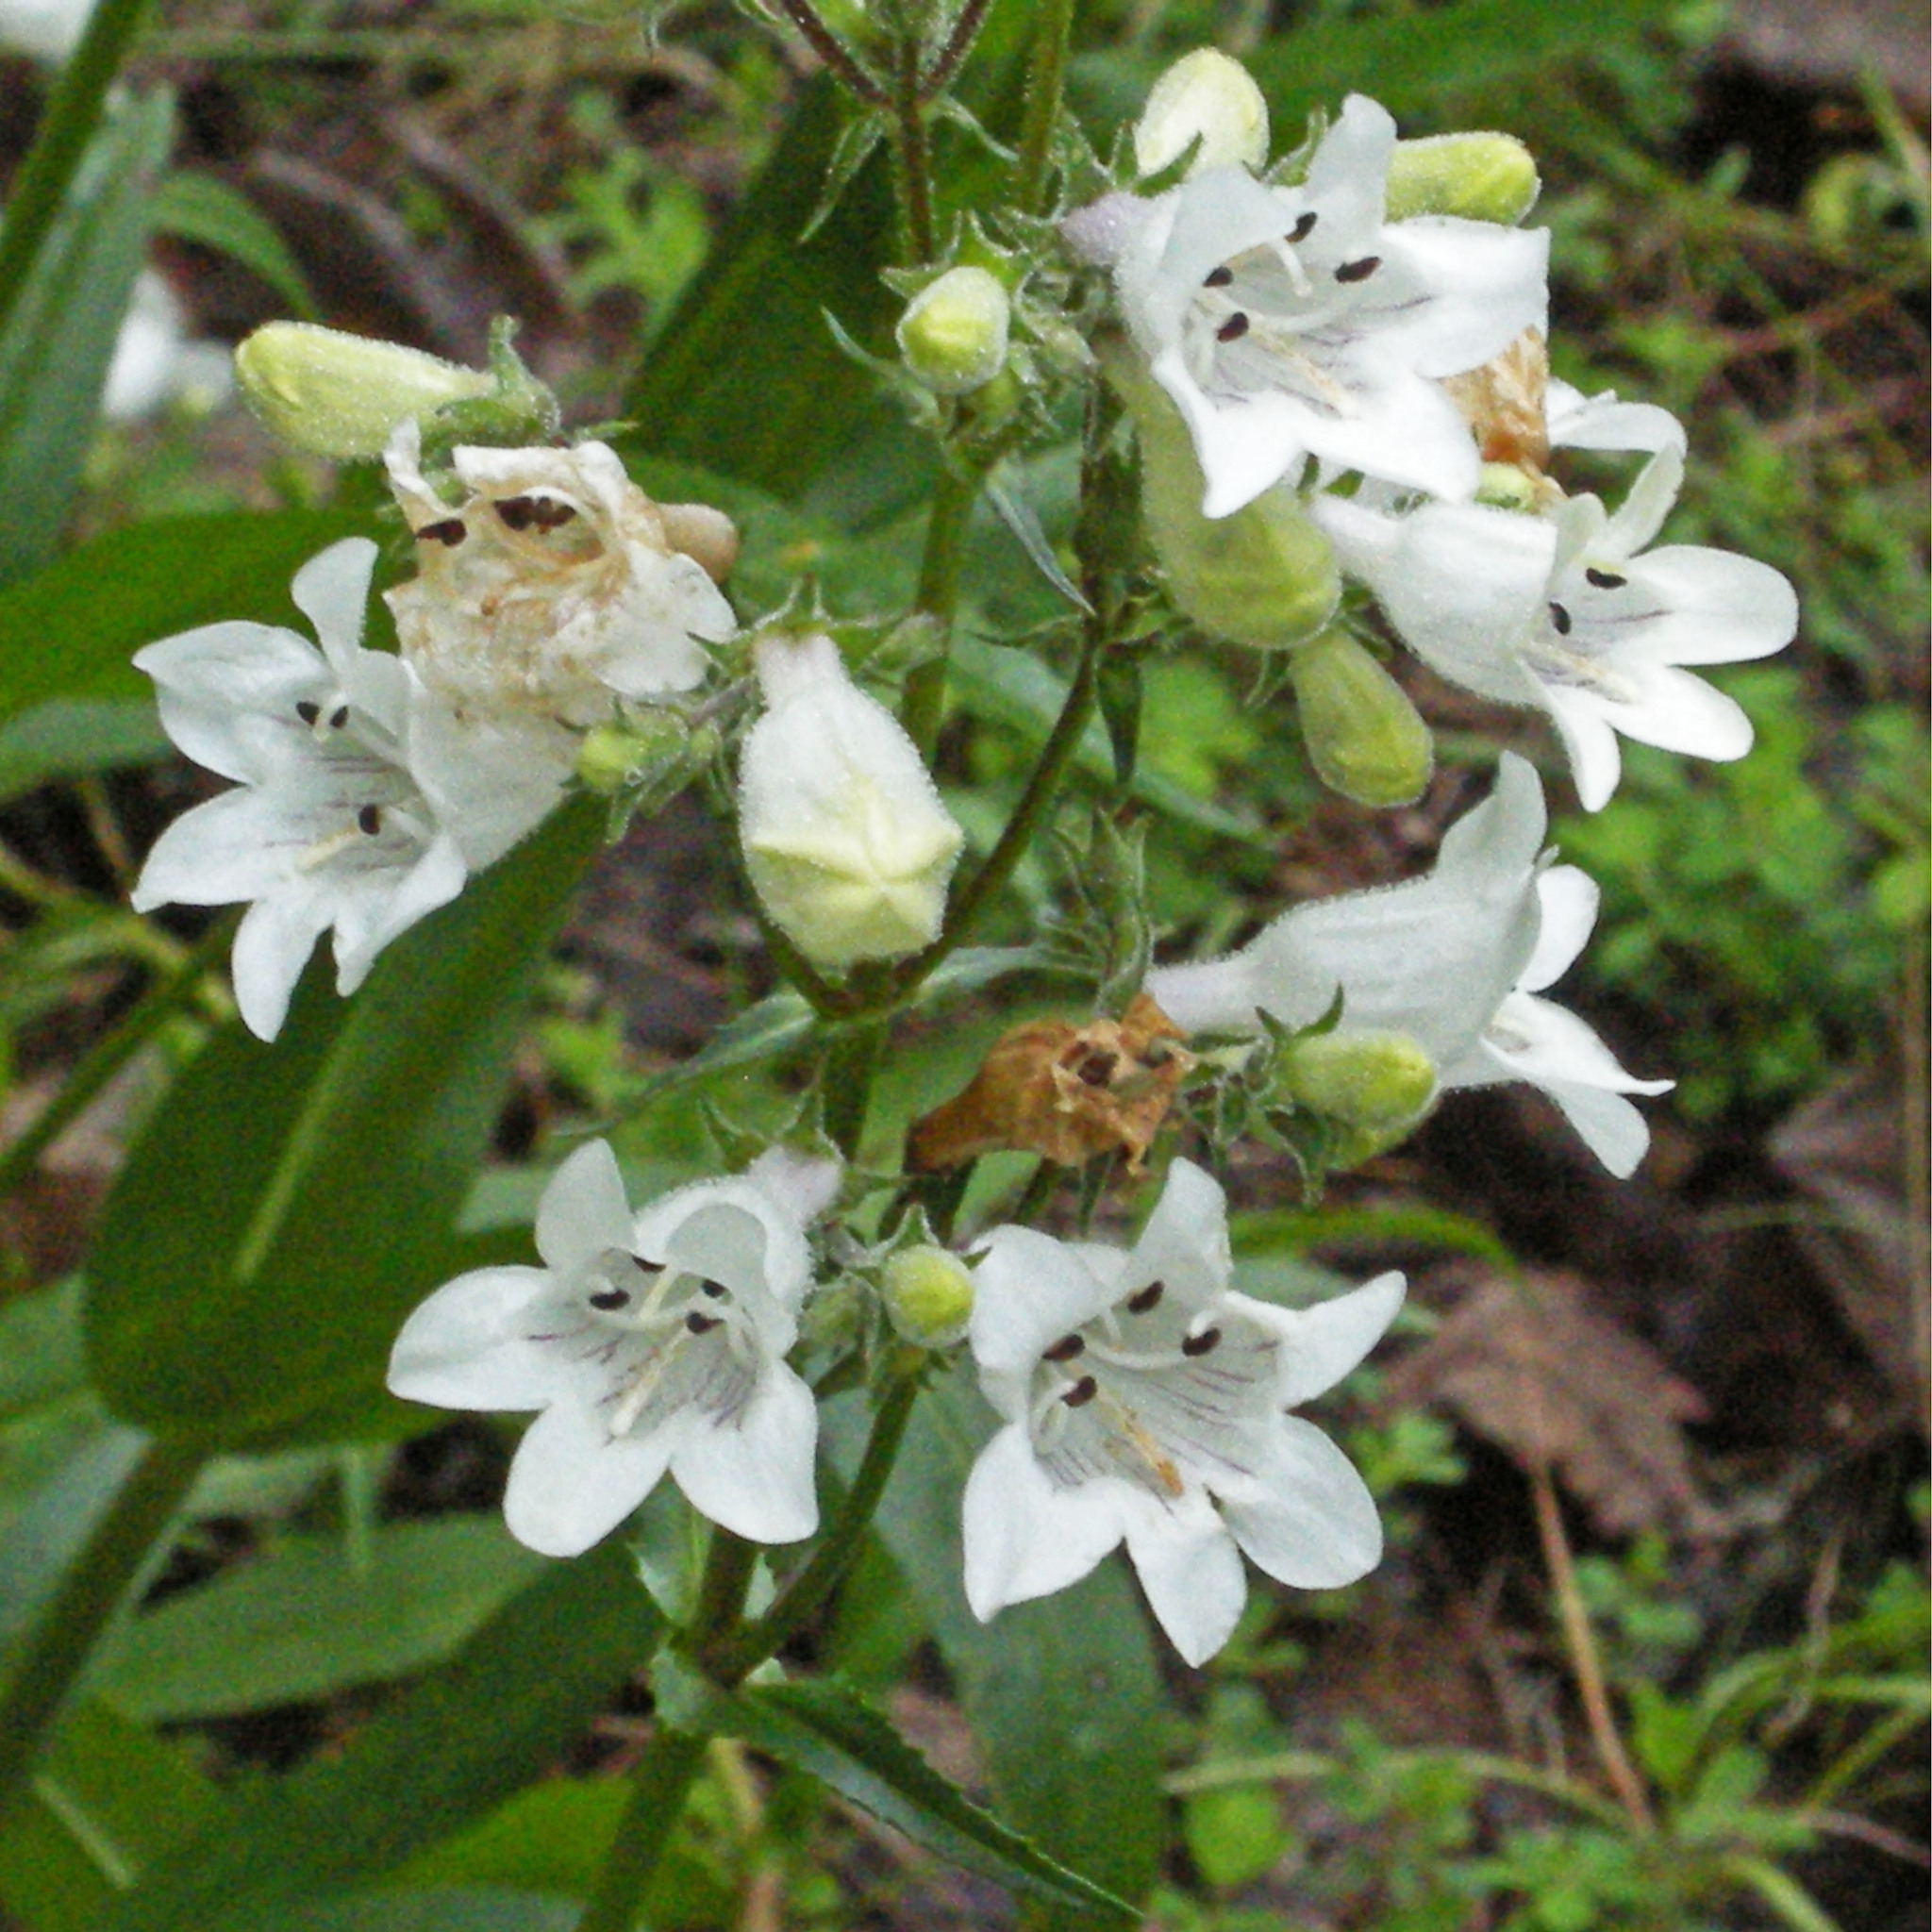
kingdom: Plantae
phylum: Tracheophyta
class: Magnoliopsida
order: Lamiales
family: Plantaginaceae
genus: Penstemon
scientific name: Penstemon digitalis
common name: Foxglove beardtongue
